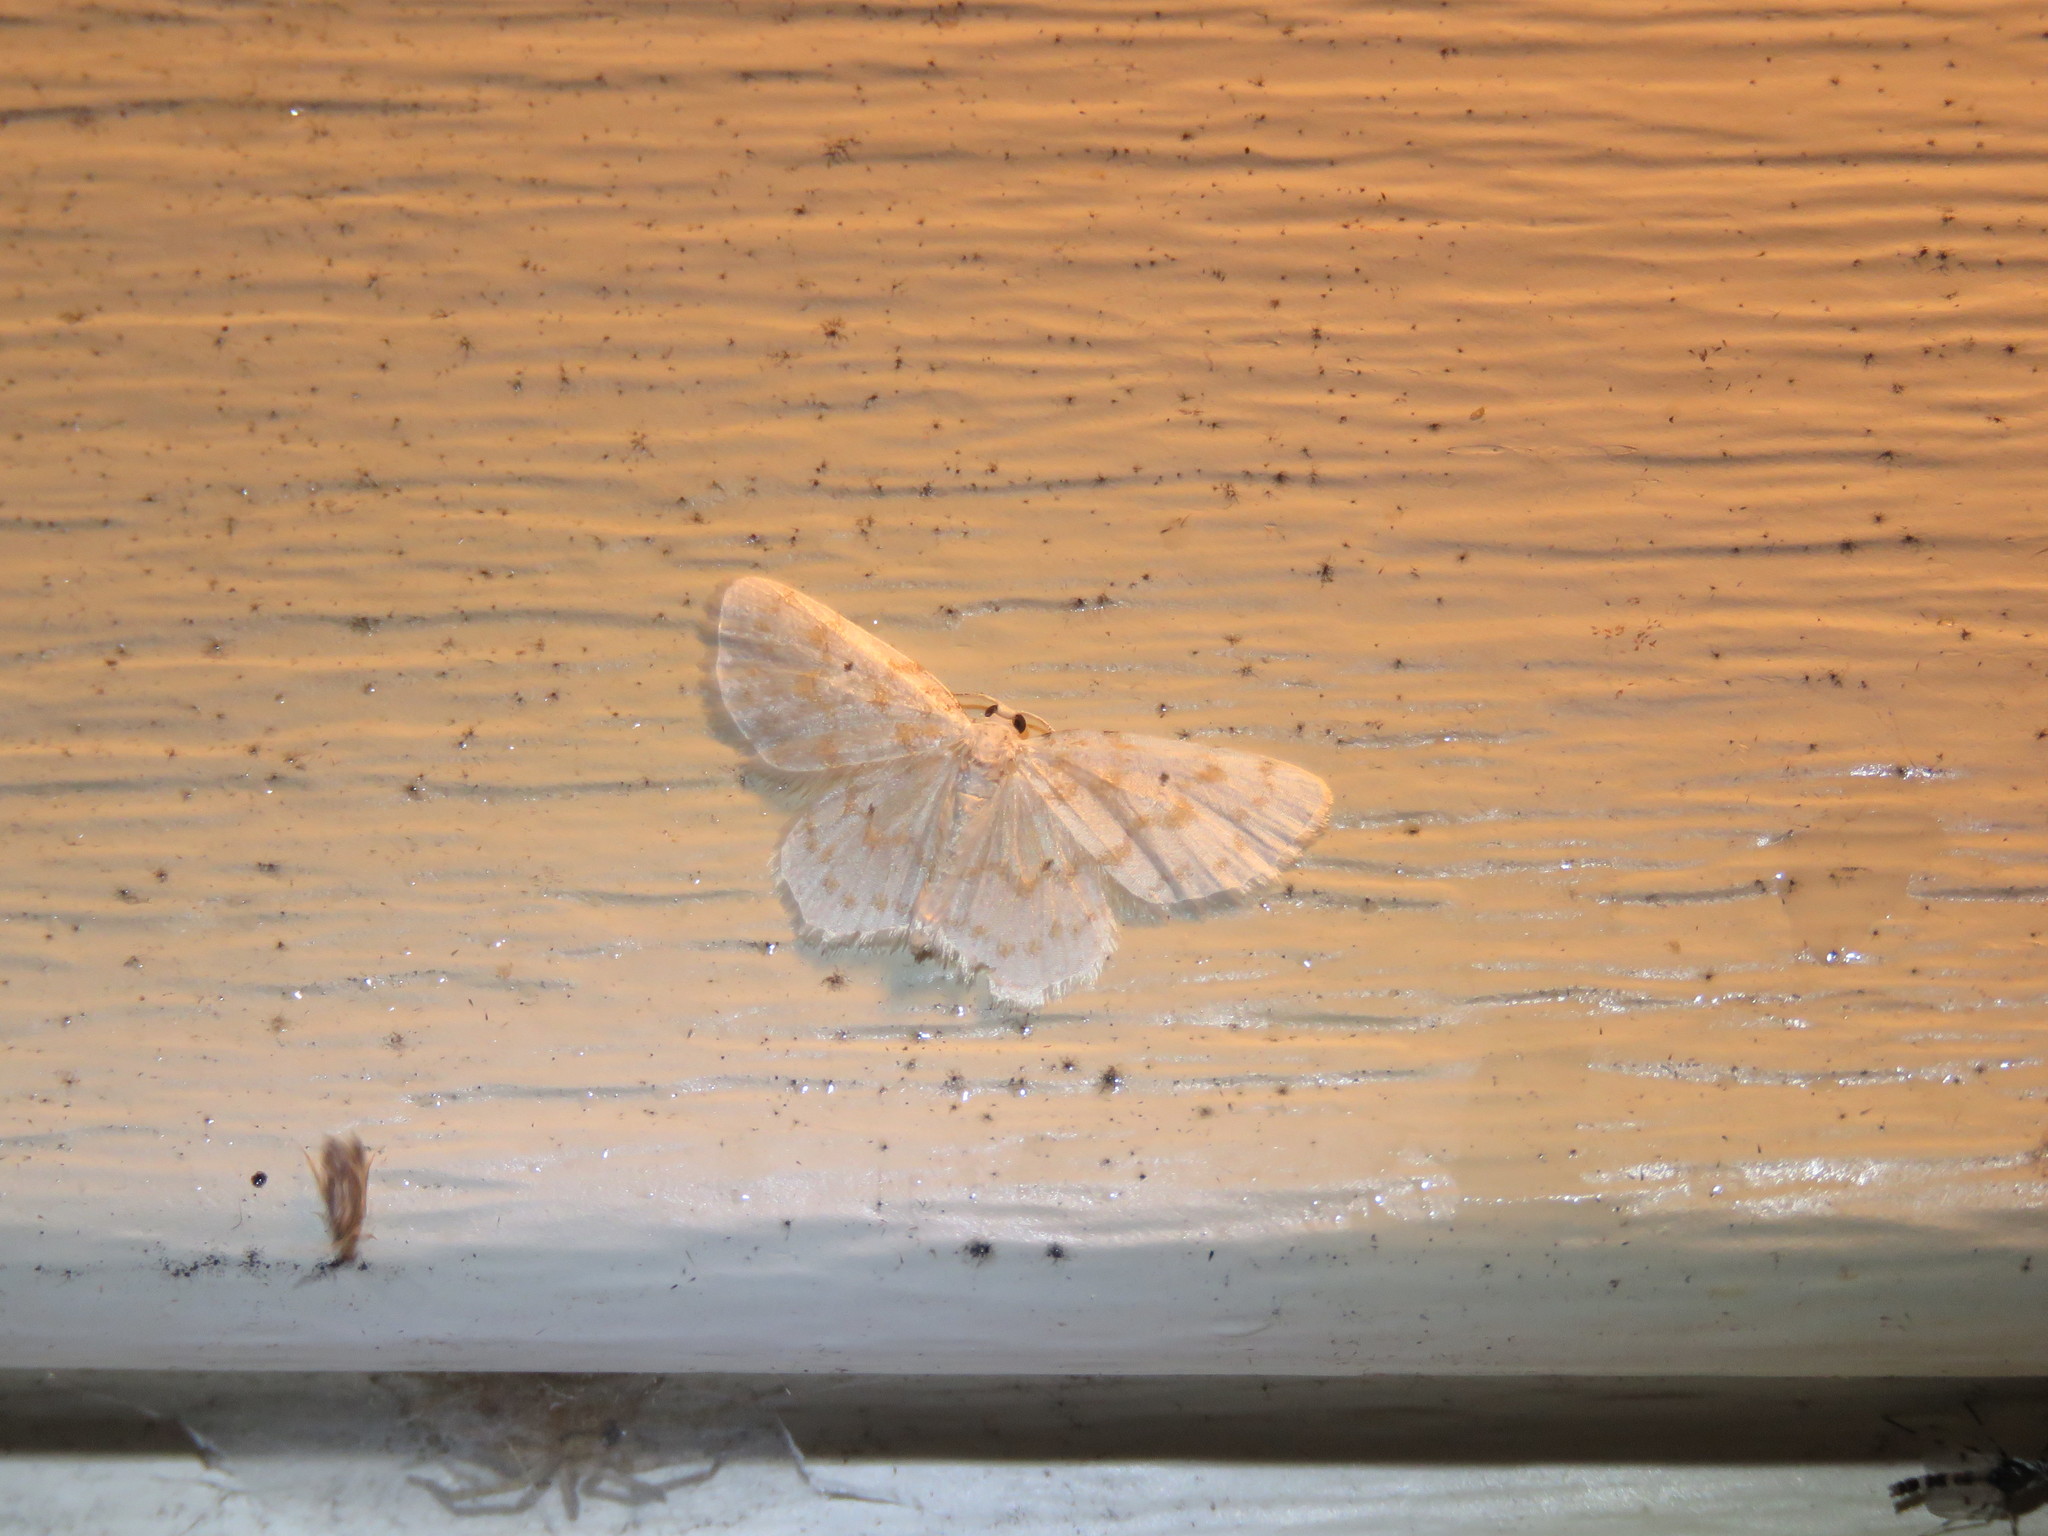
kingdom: Animalia
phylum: Arthropoda
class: Insecta
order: Lepidoptera
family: Geometridae
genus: Hydrelia
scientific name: Hydrelia albifera
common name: Fragile white carpet
